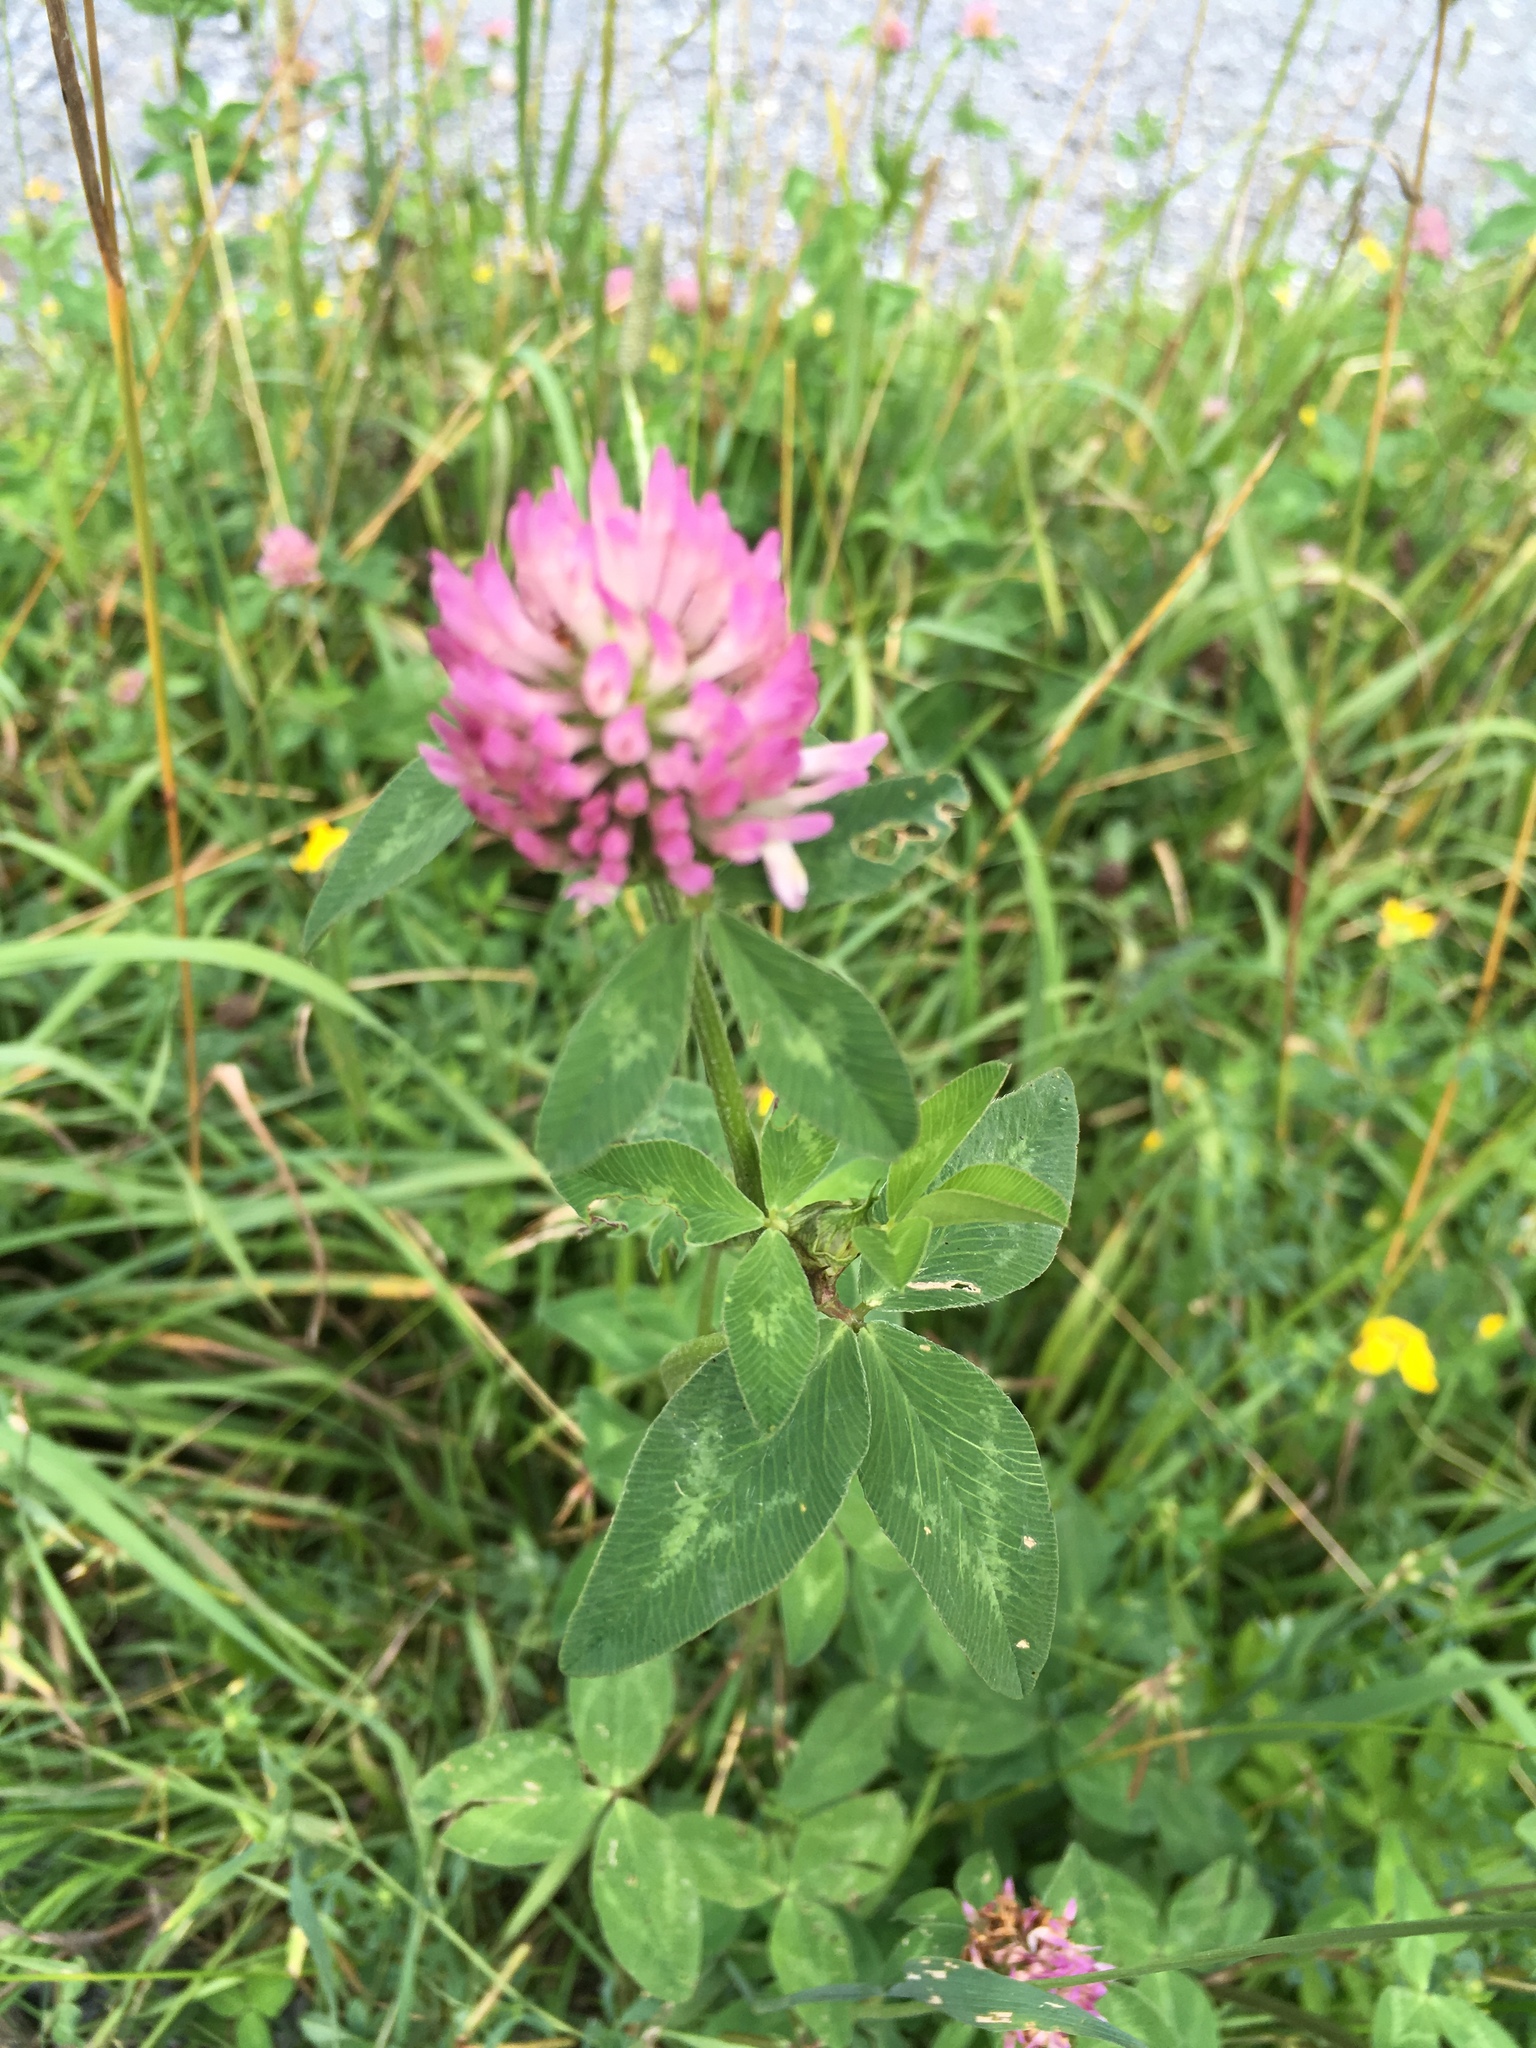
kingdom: Plantae
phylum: Tracheophyta
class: Magnoliopsida
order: Fabales
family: Fabaceae
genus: Trifolium
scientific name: Trifolium pratense
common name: Red clover
